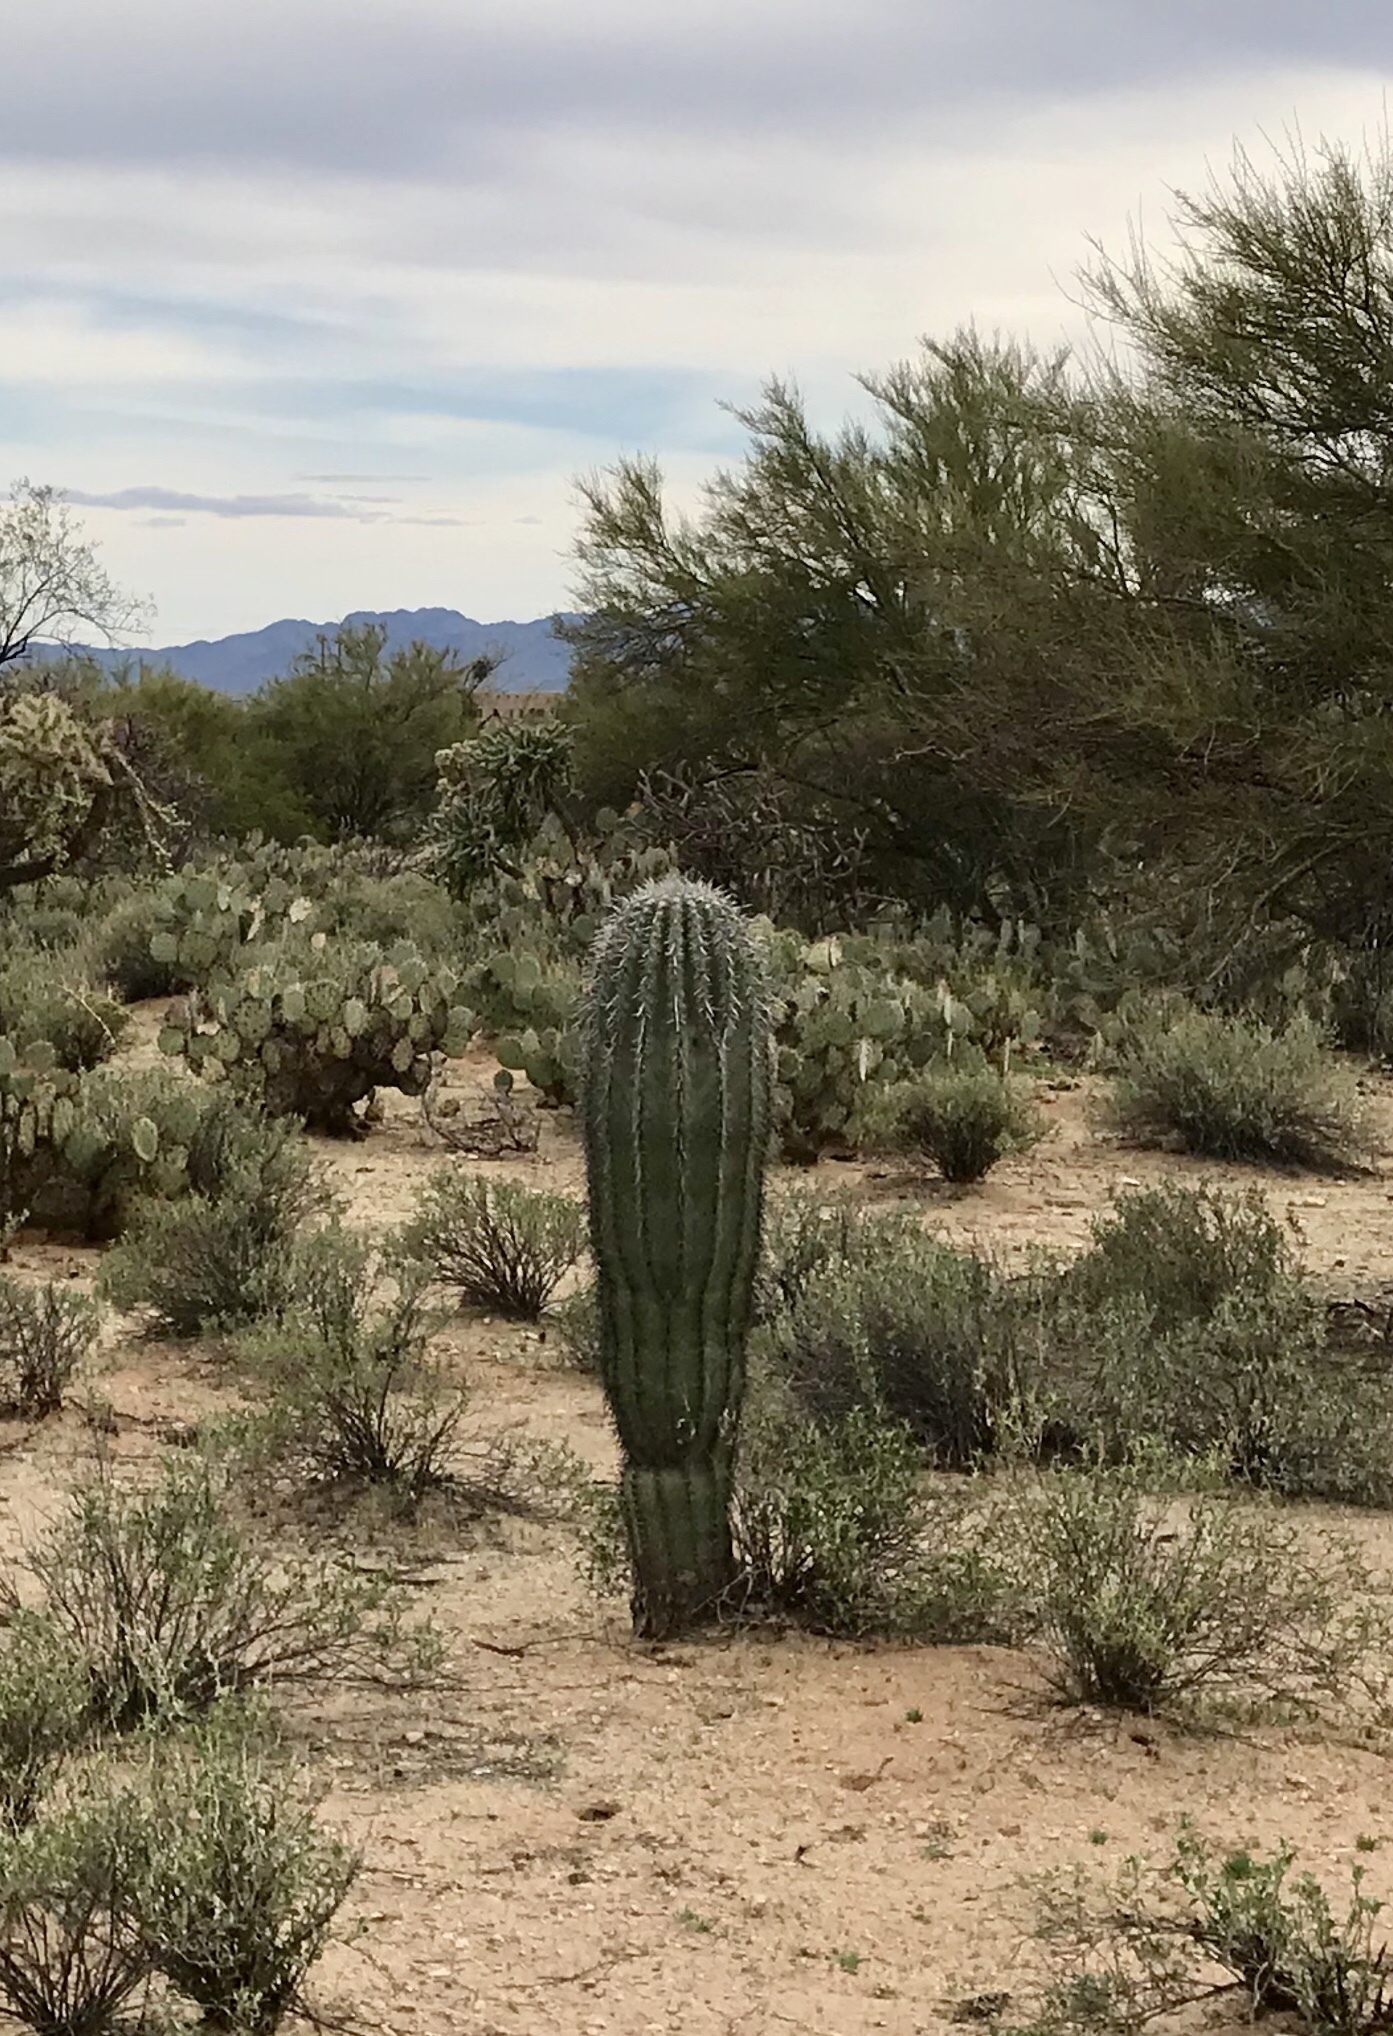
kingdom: Plantae
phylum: Tracheophyta
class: Magnoliopsida
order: Caryophyllales
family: Cactaceae
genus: Carnegiea
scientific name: Carnegiea gigantea
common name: Saguaro
